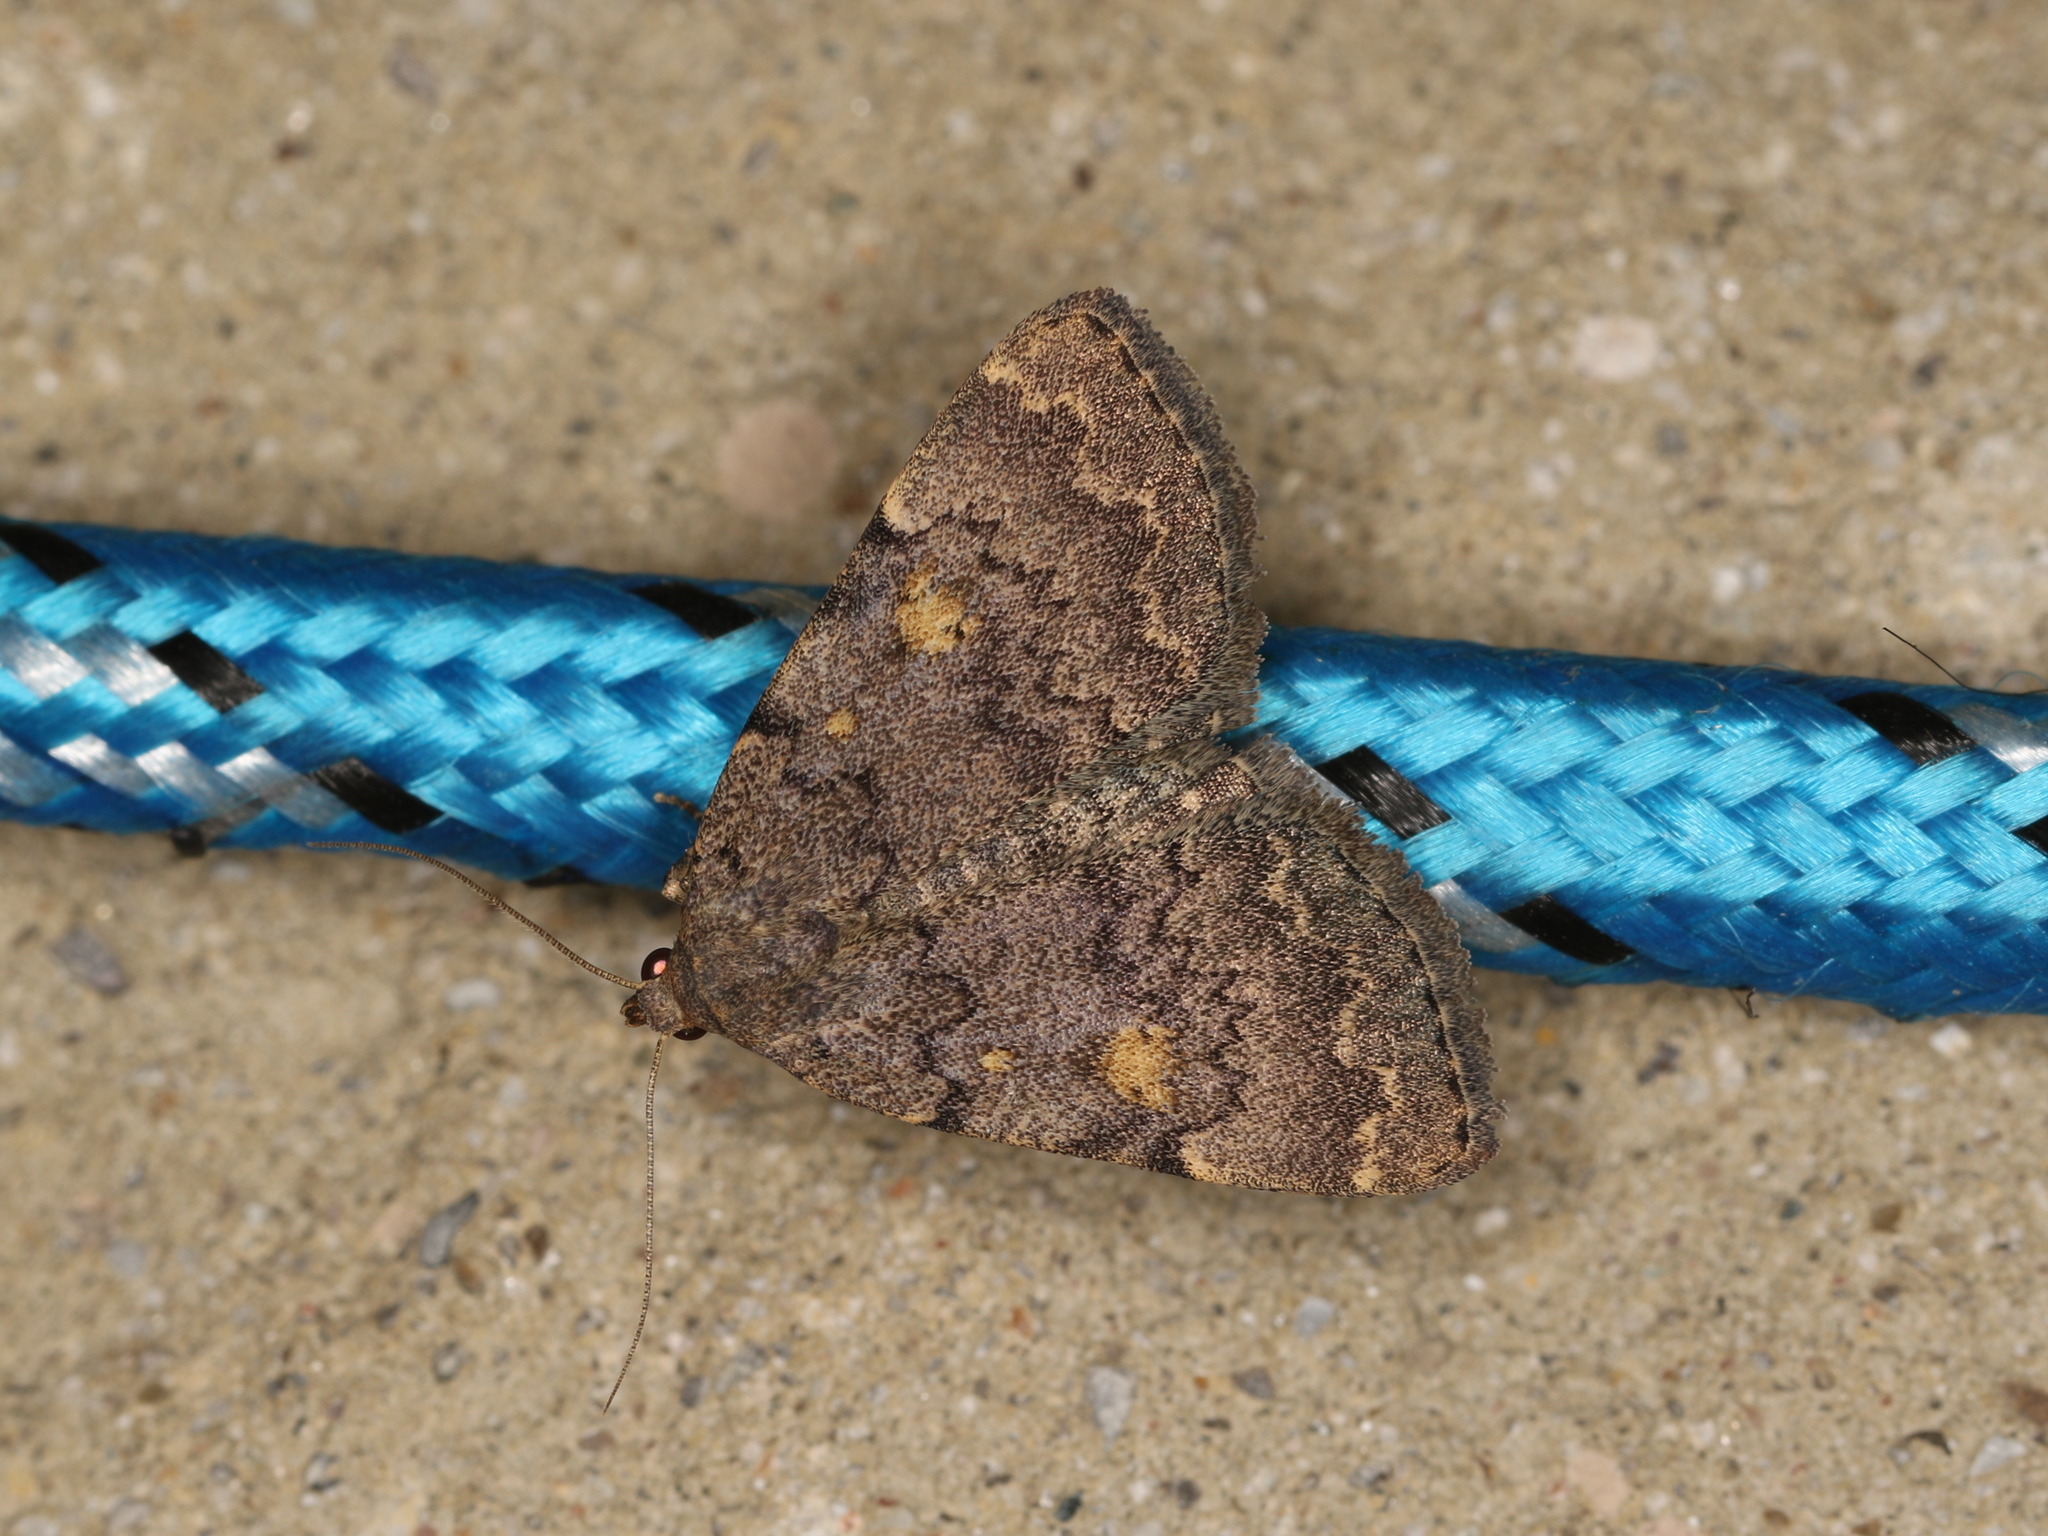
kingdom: Animalia
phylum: Arthropoda
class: Insecta
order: Lepidoptera
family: Erebidae
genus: Idia
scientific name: Idia aemula
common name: Common idia moth
